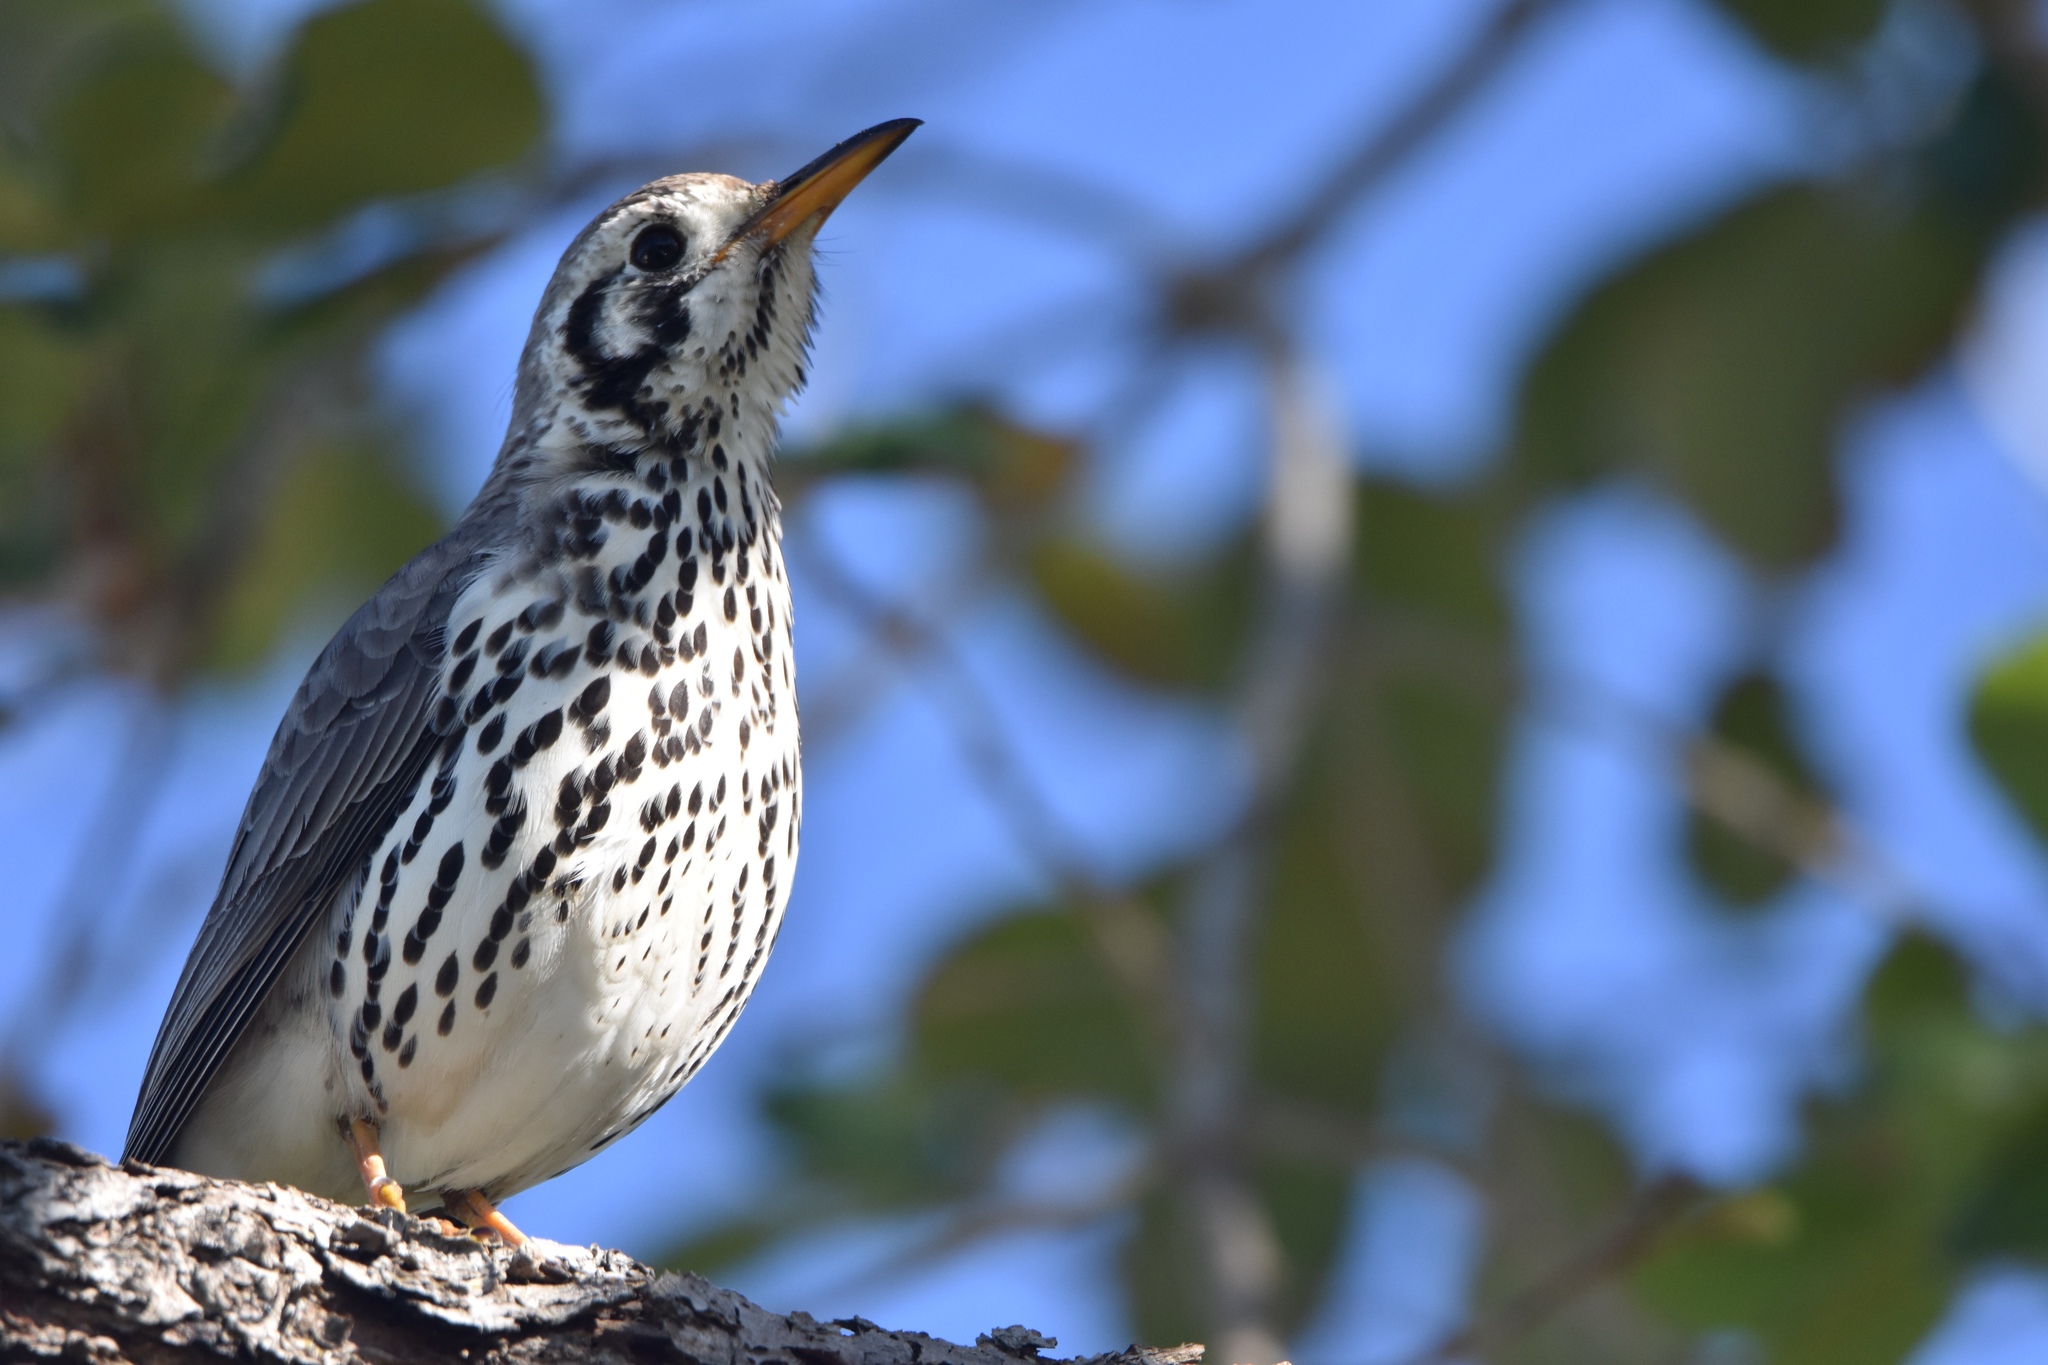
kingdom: Animalia
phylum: Chordata
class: Aves
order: Passeriformes
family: Turdidae
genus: Psophocichla
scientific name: Psophocichla litsitsirupa
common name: Groundscraper thrush
